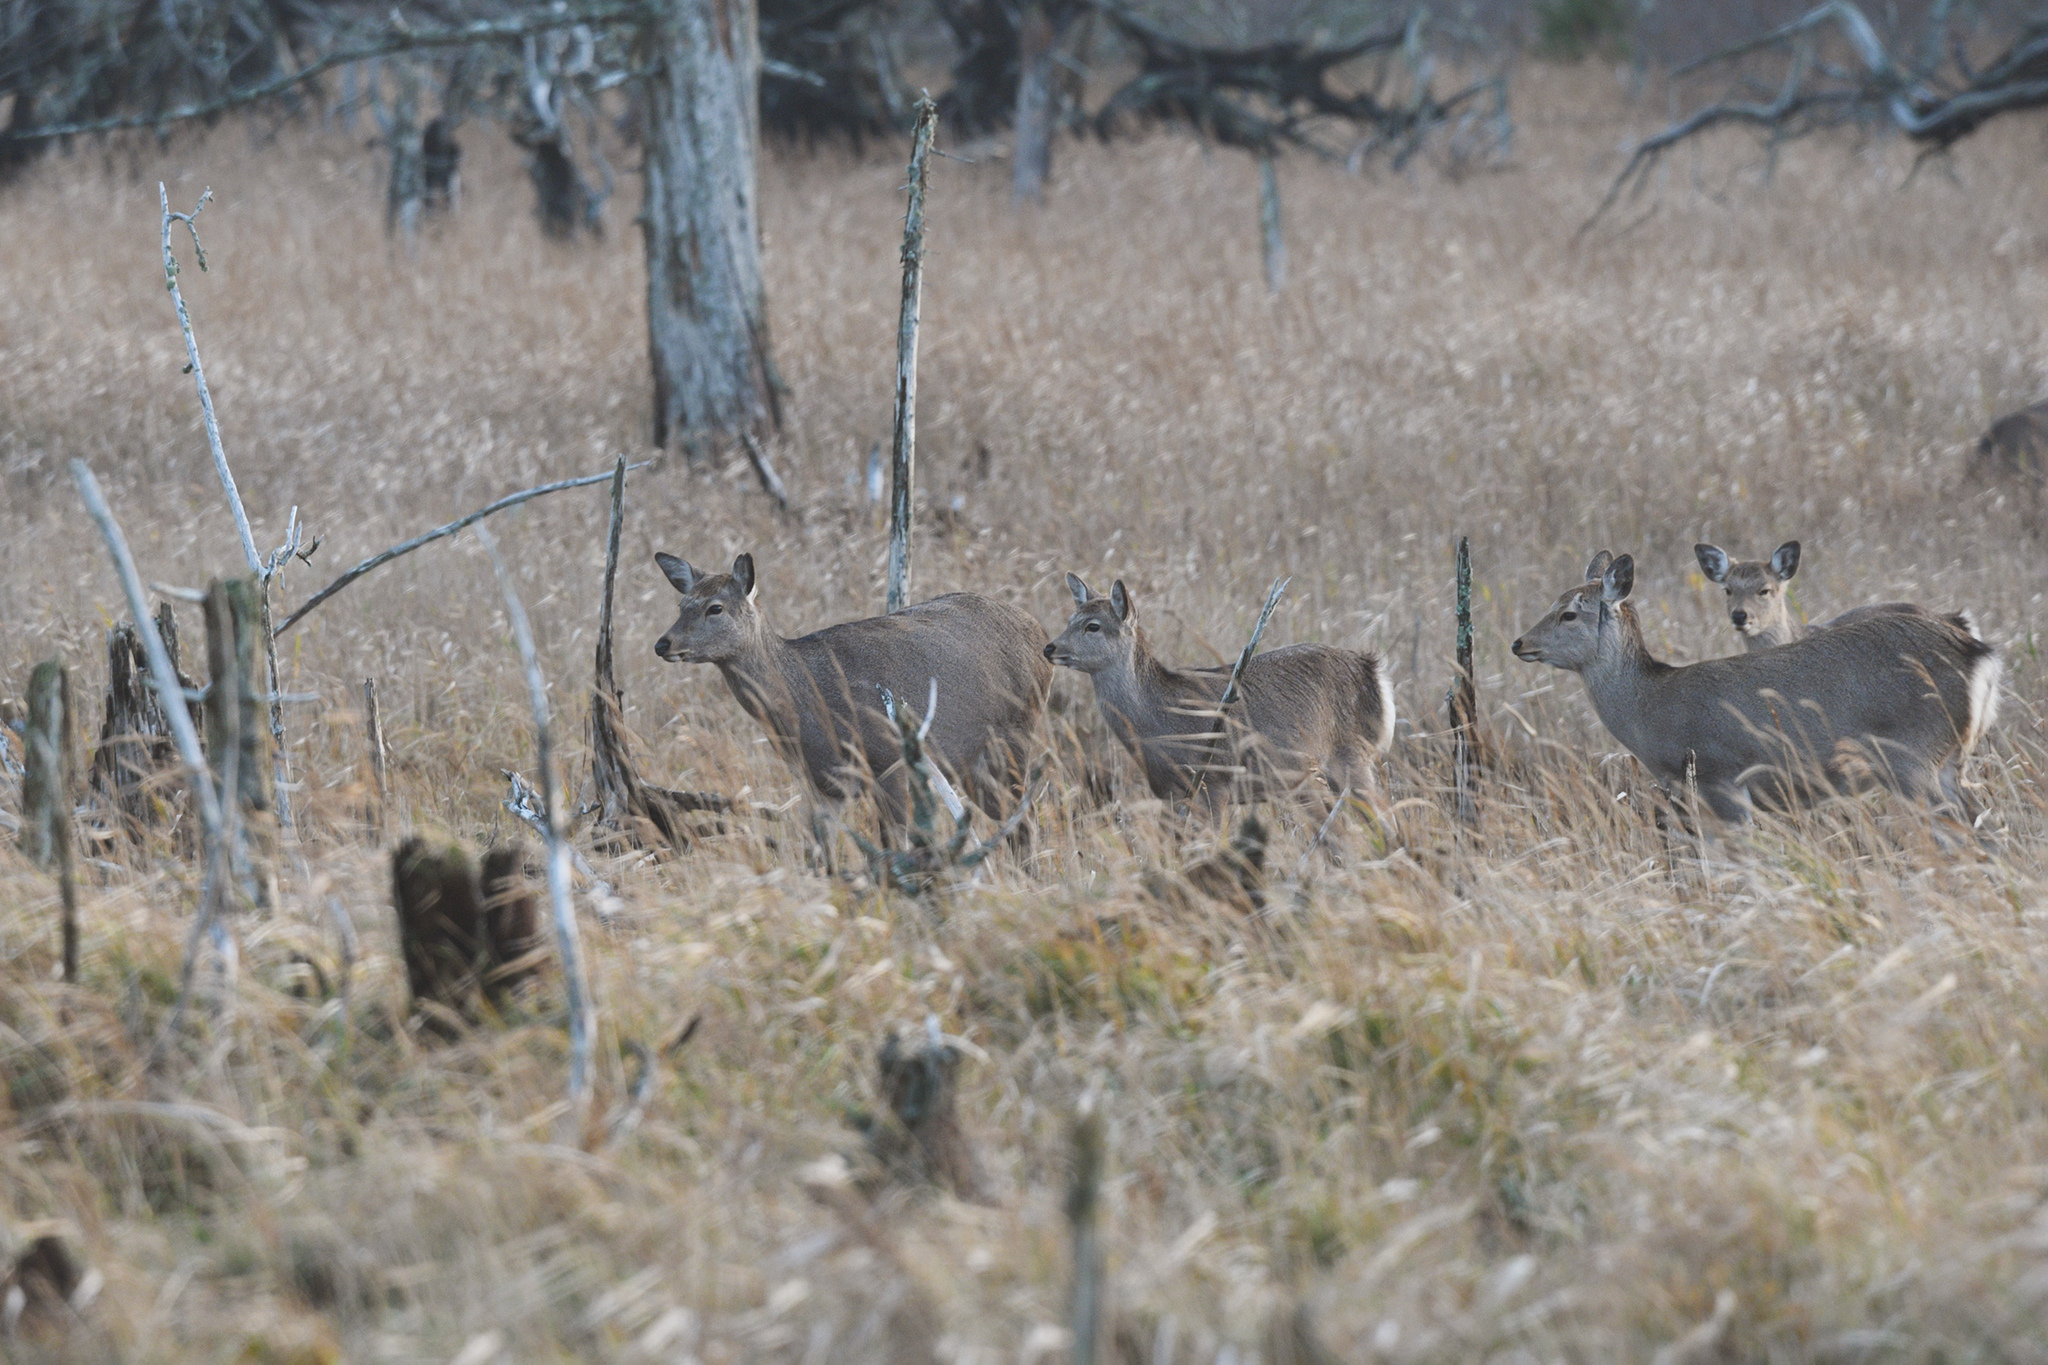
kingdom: Animalia
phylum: Chordata
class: Mammalia
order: Artiodactyla
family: Cervidae
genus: Cervus
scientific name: Cervus nippon
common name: Sika deer
